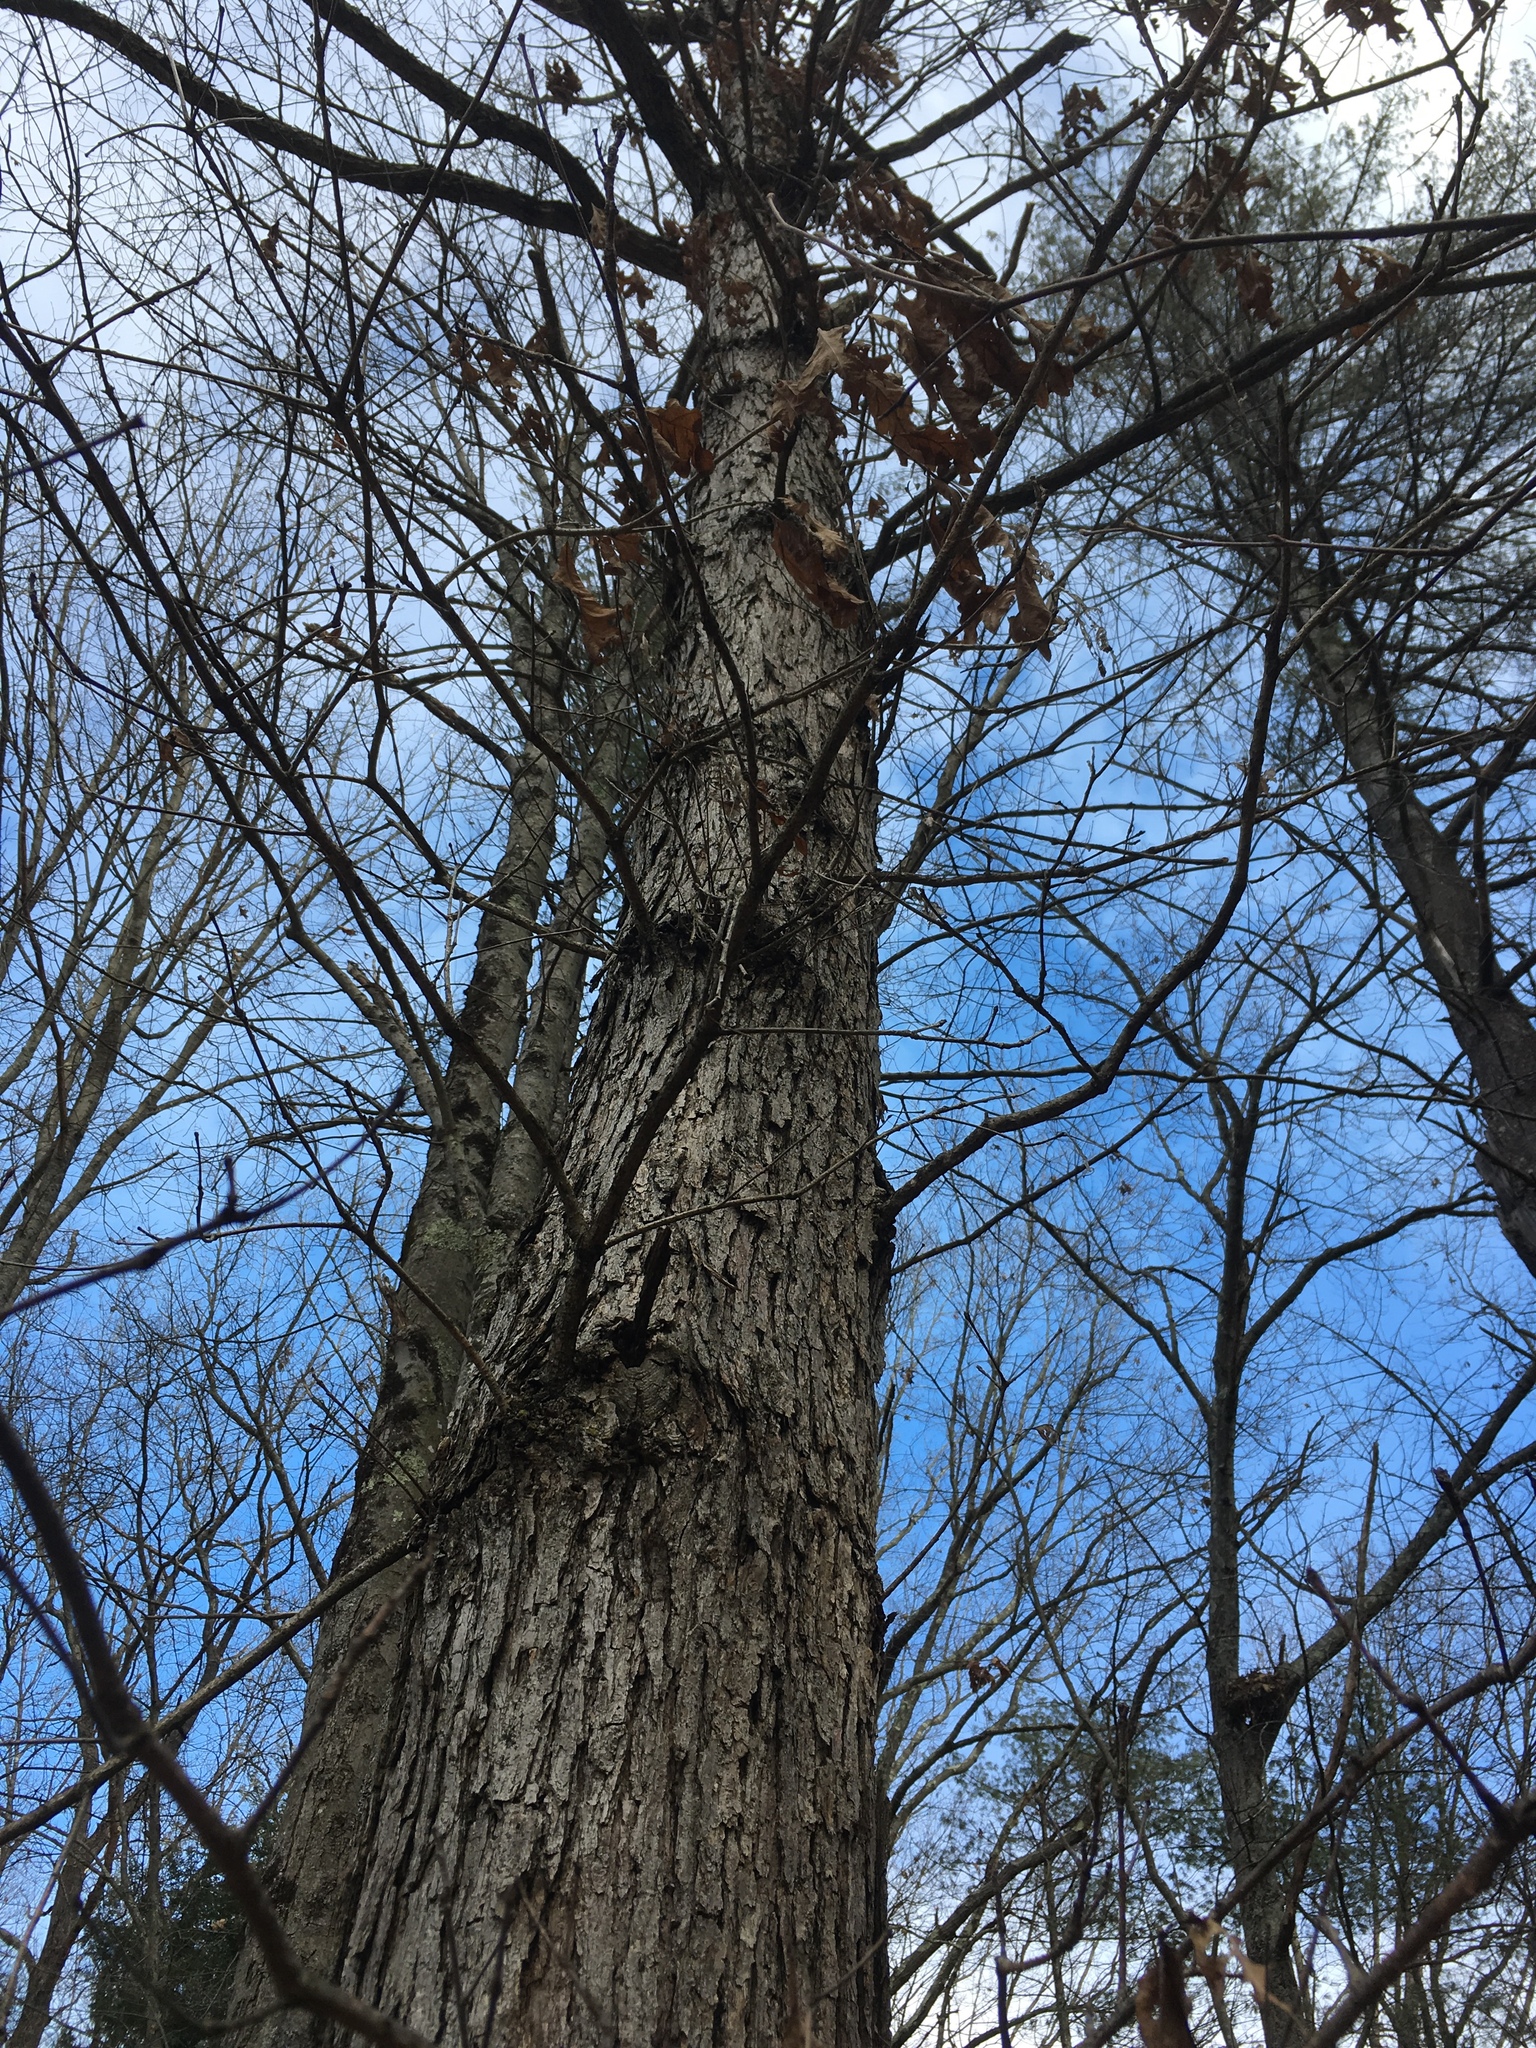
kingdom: Plantae
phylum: Tracheophyta
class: Magnoliopsida
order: Fagales
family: Fagaceae
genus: Quercus
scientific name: Quercus alba
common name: White oak
